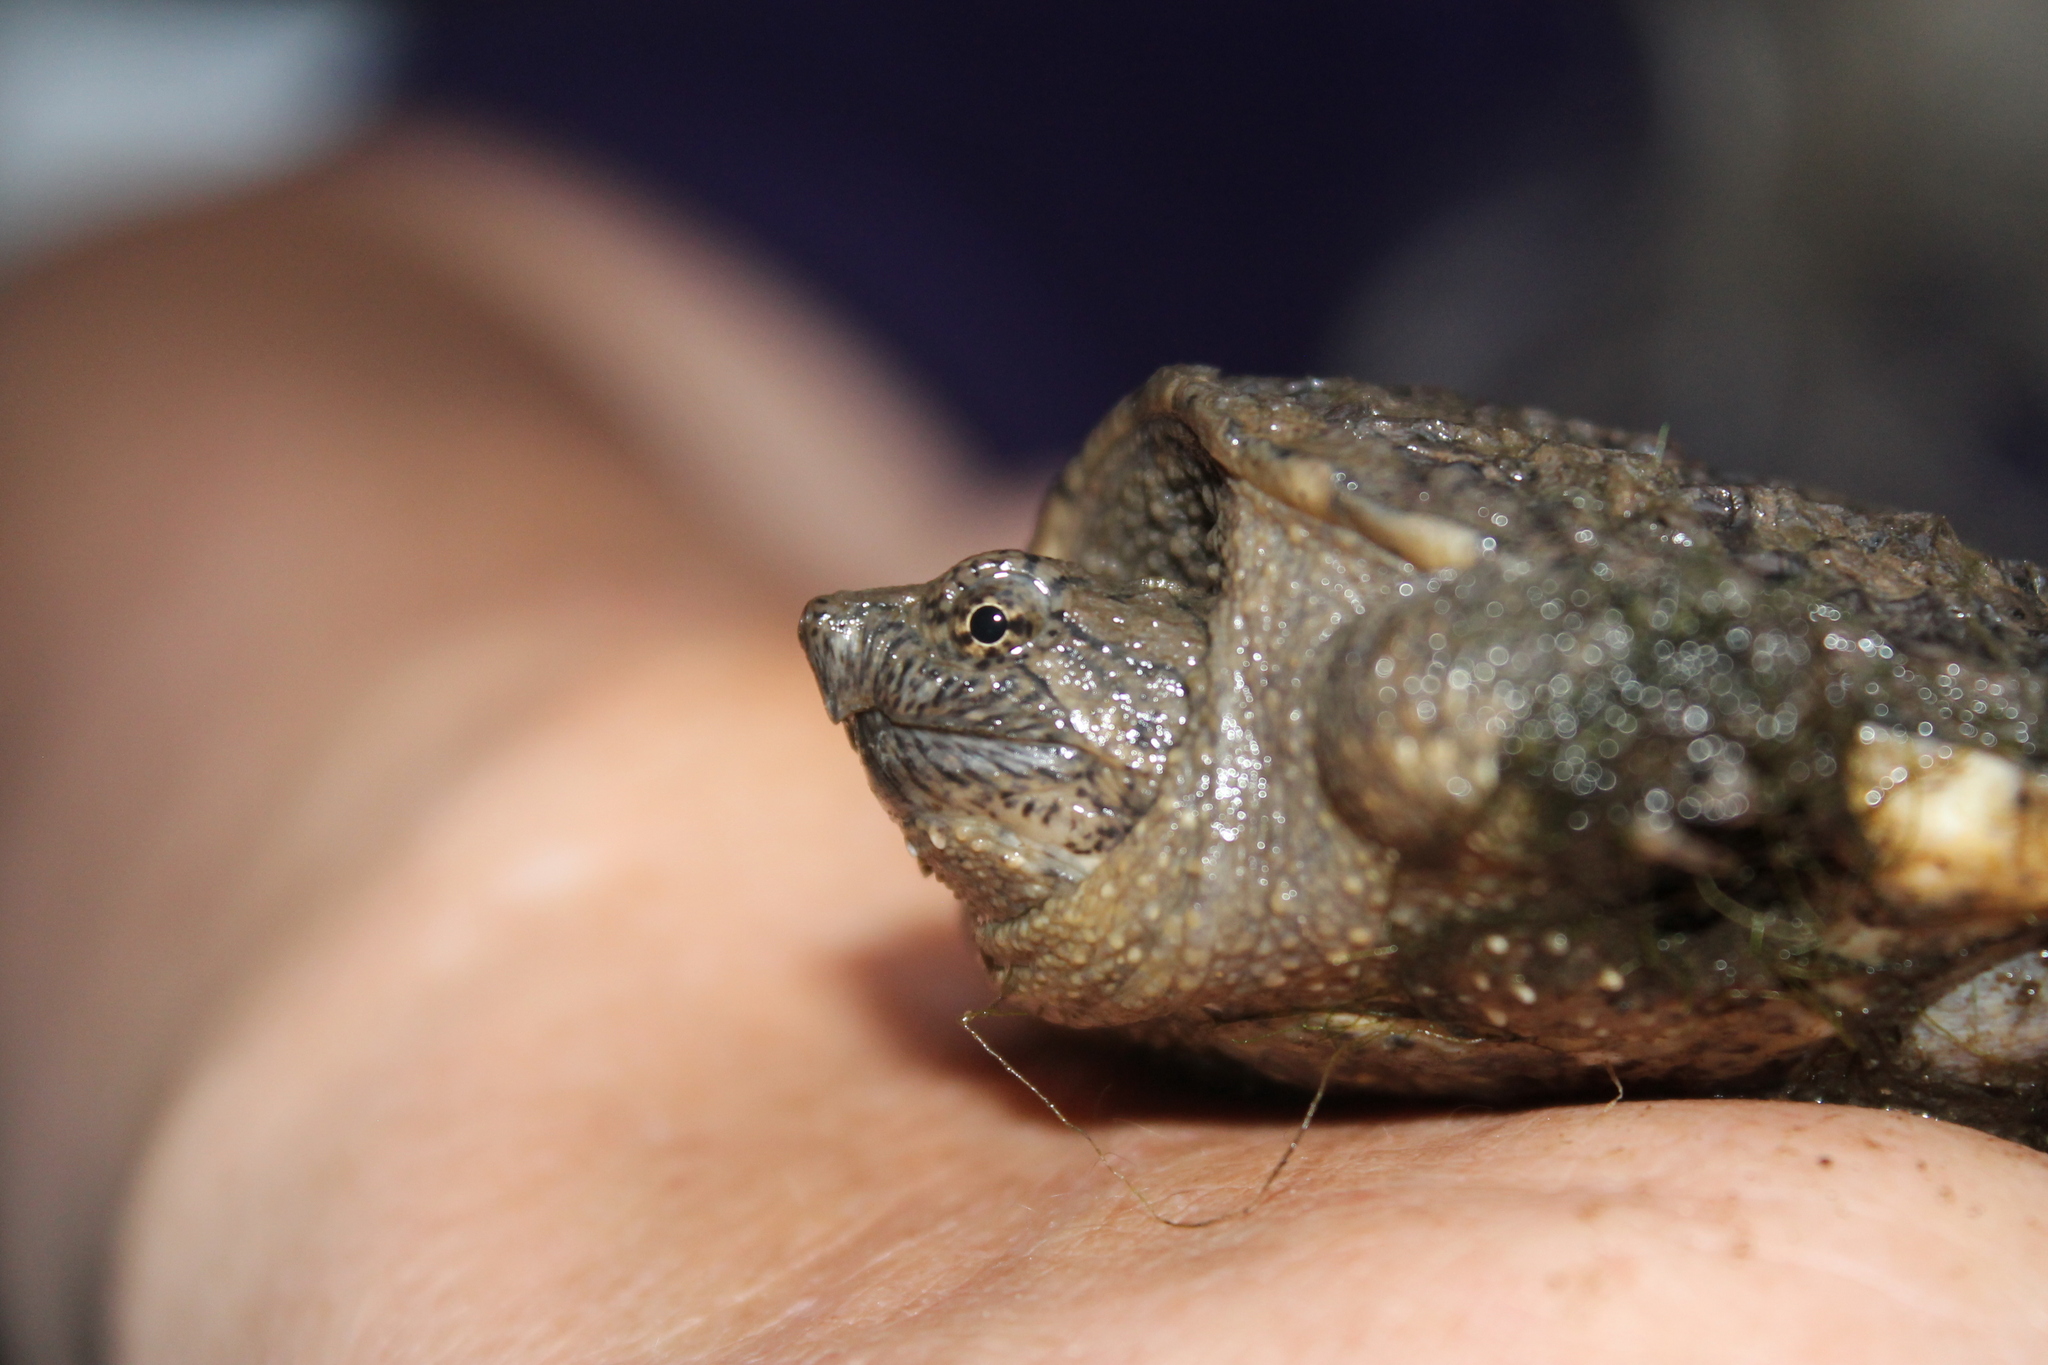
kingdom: Animalia
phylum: Chordata
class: Testudines
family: Chelydridae
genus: Chelydra
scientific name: Chelydra serpentina
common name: Common snapping turtle
